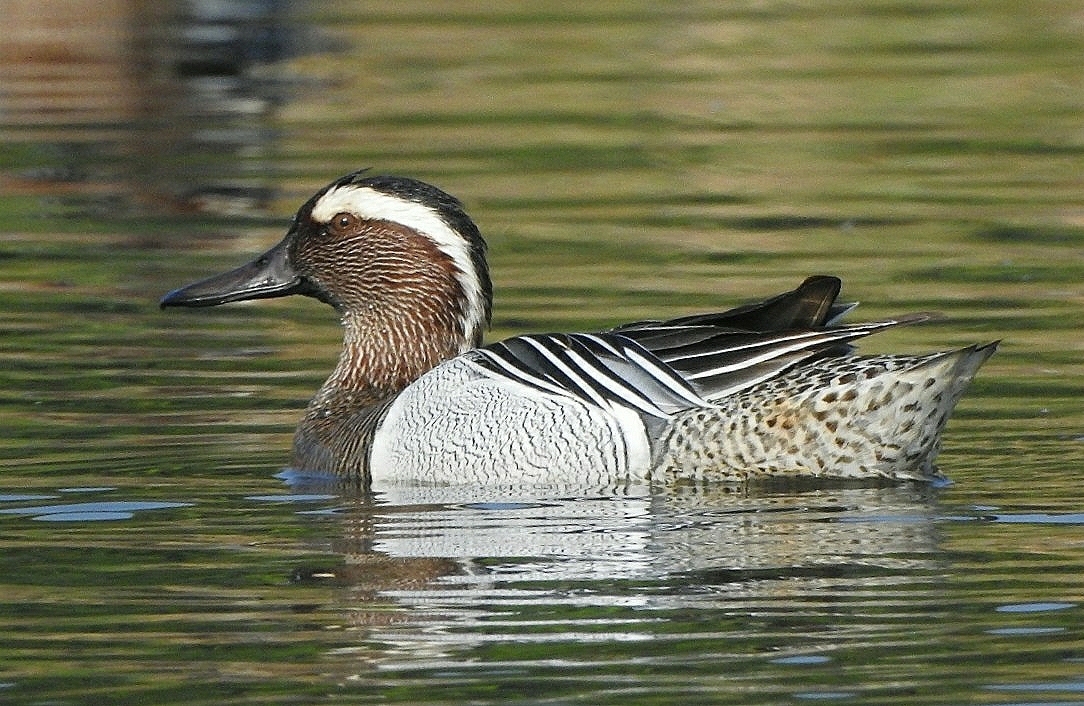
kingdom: Animalia
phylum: Chordata
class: Aves
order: Anseriformes
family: Anatidae
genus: Spatula
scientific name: Spatula querquedula
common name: Garganey
